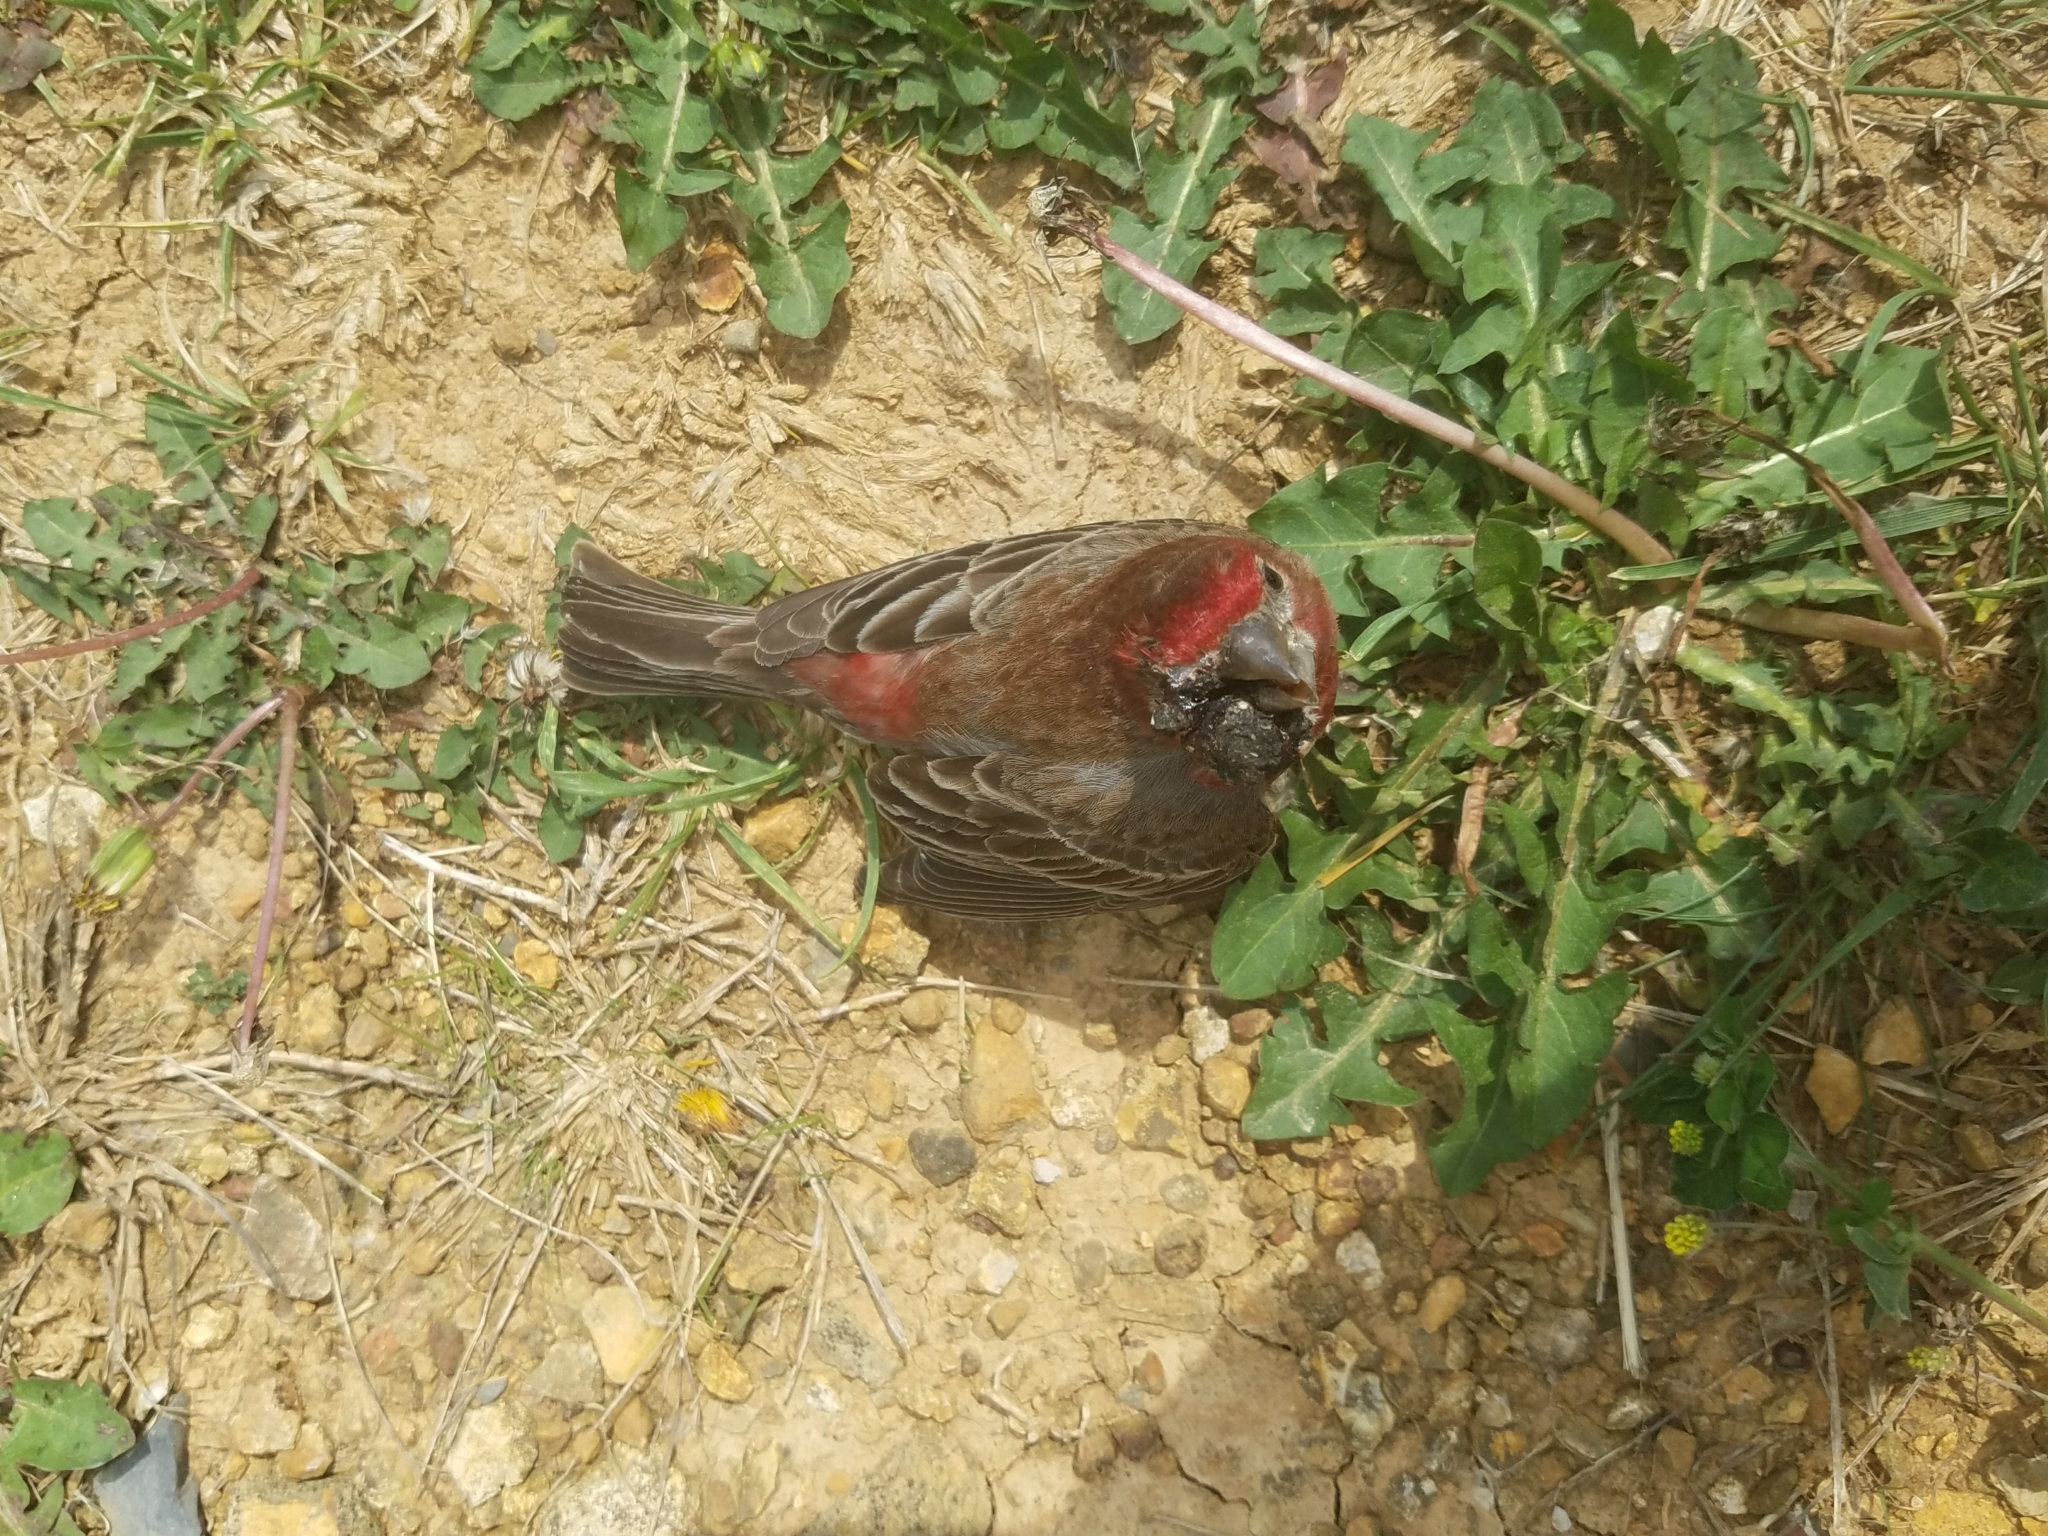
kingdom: Animalia
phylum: Chordata
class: Aves
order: Passeriformes
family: Fringillidae
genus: Haemorhous
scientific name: Haemorhous mexicanus
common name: House finch
